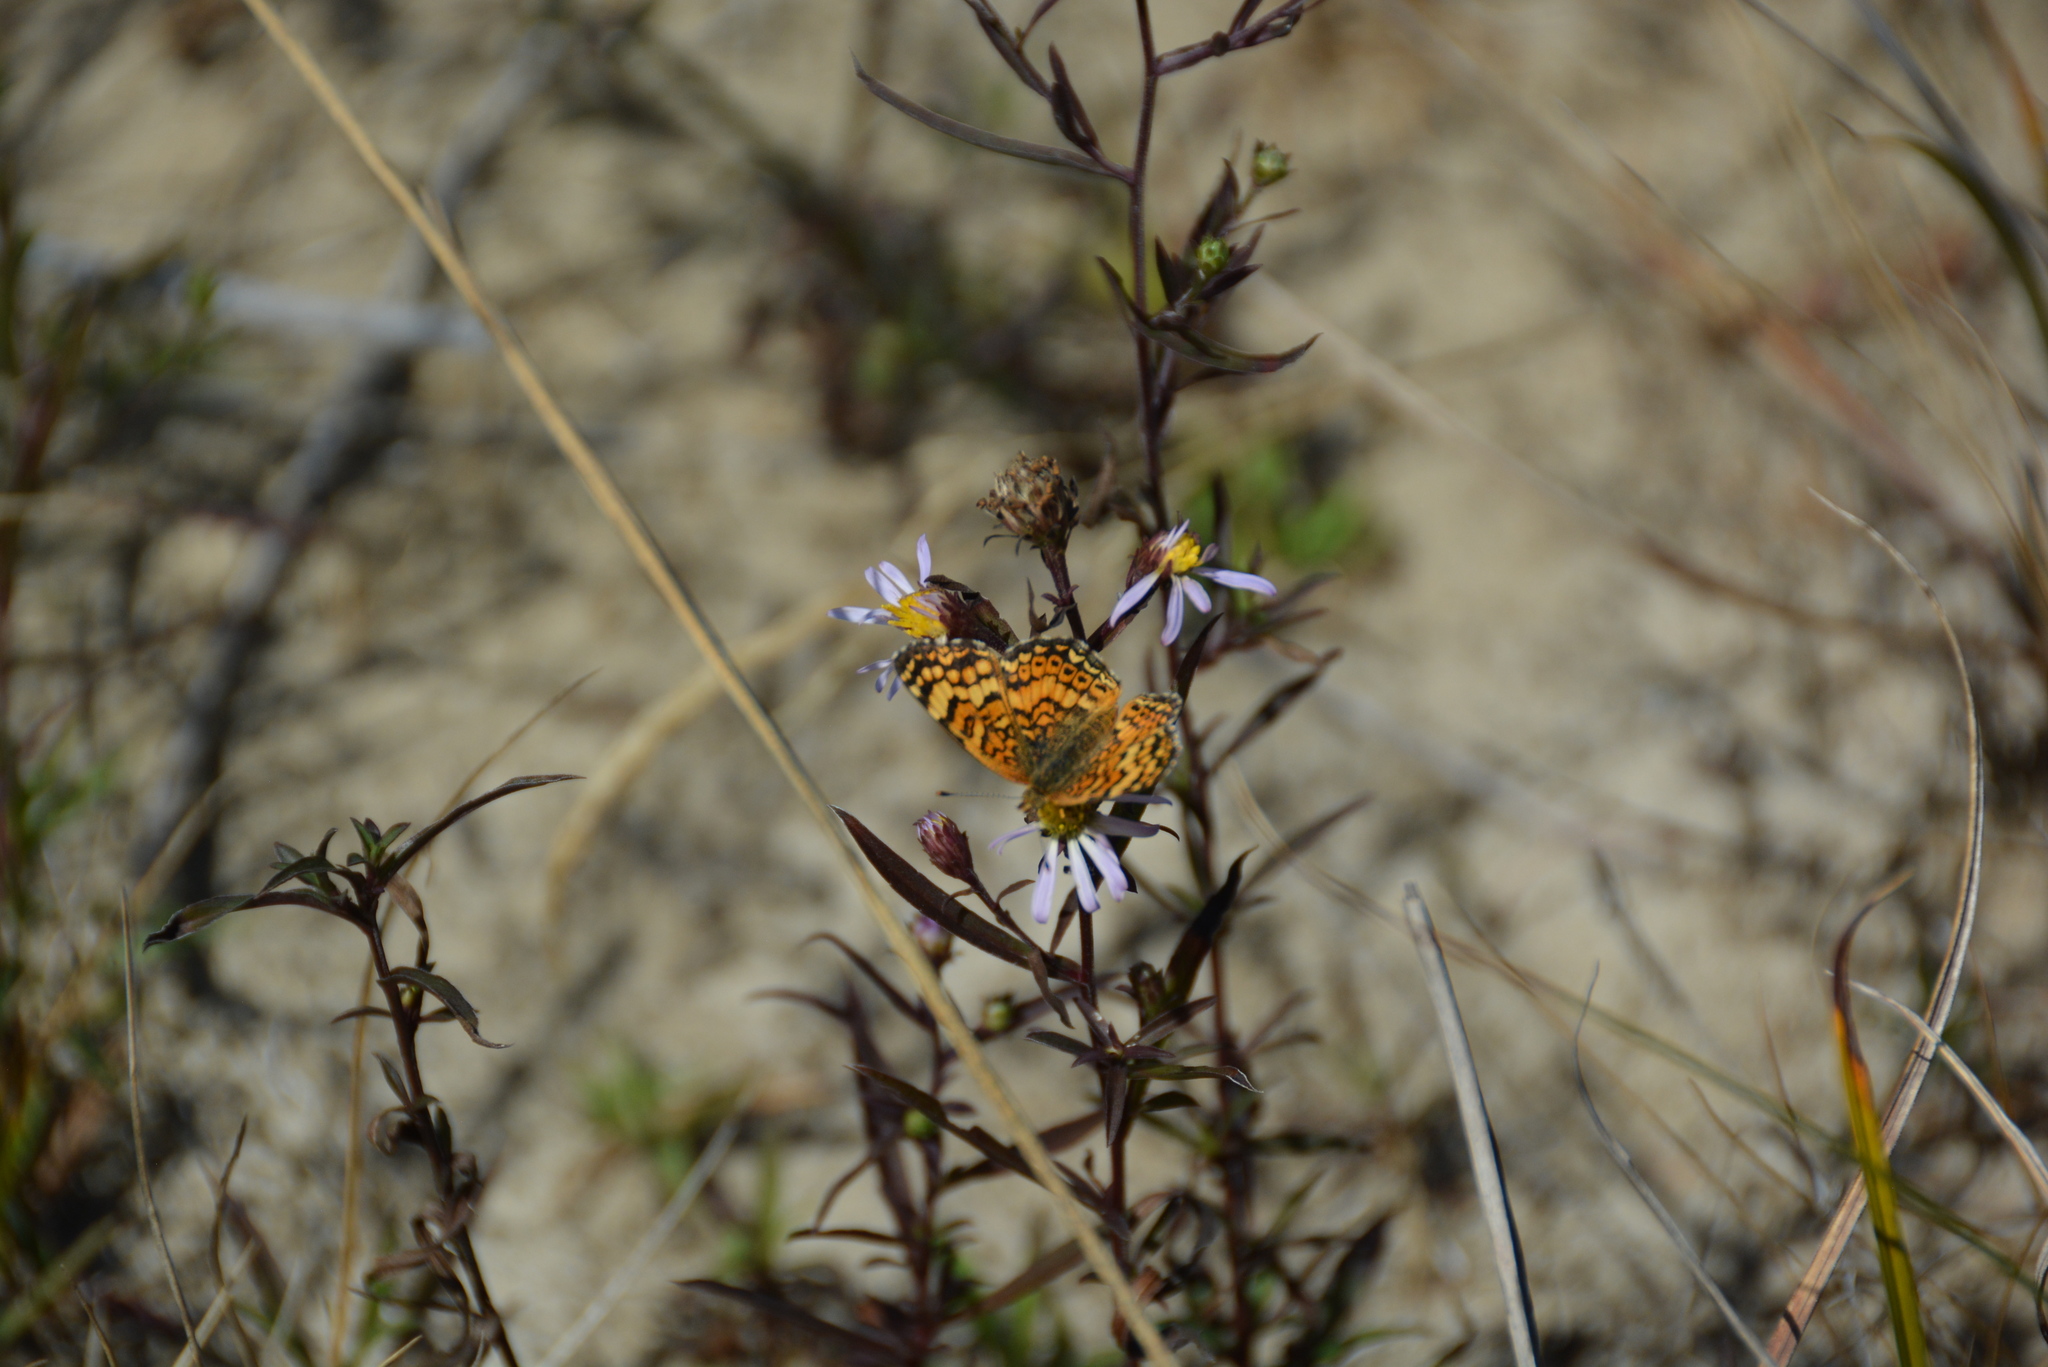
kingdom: Animalia
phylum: Arthropoda
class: Insecta
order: Lepidoptera
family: Nymphalidae
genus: Eresia
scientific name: Eresia aveyrona
